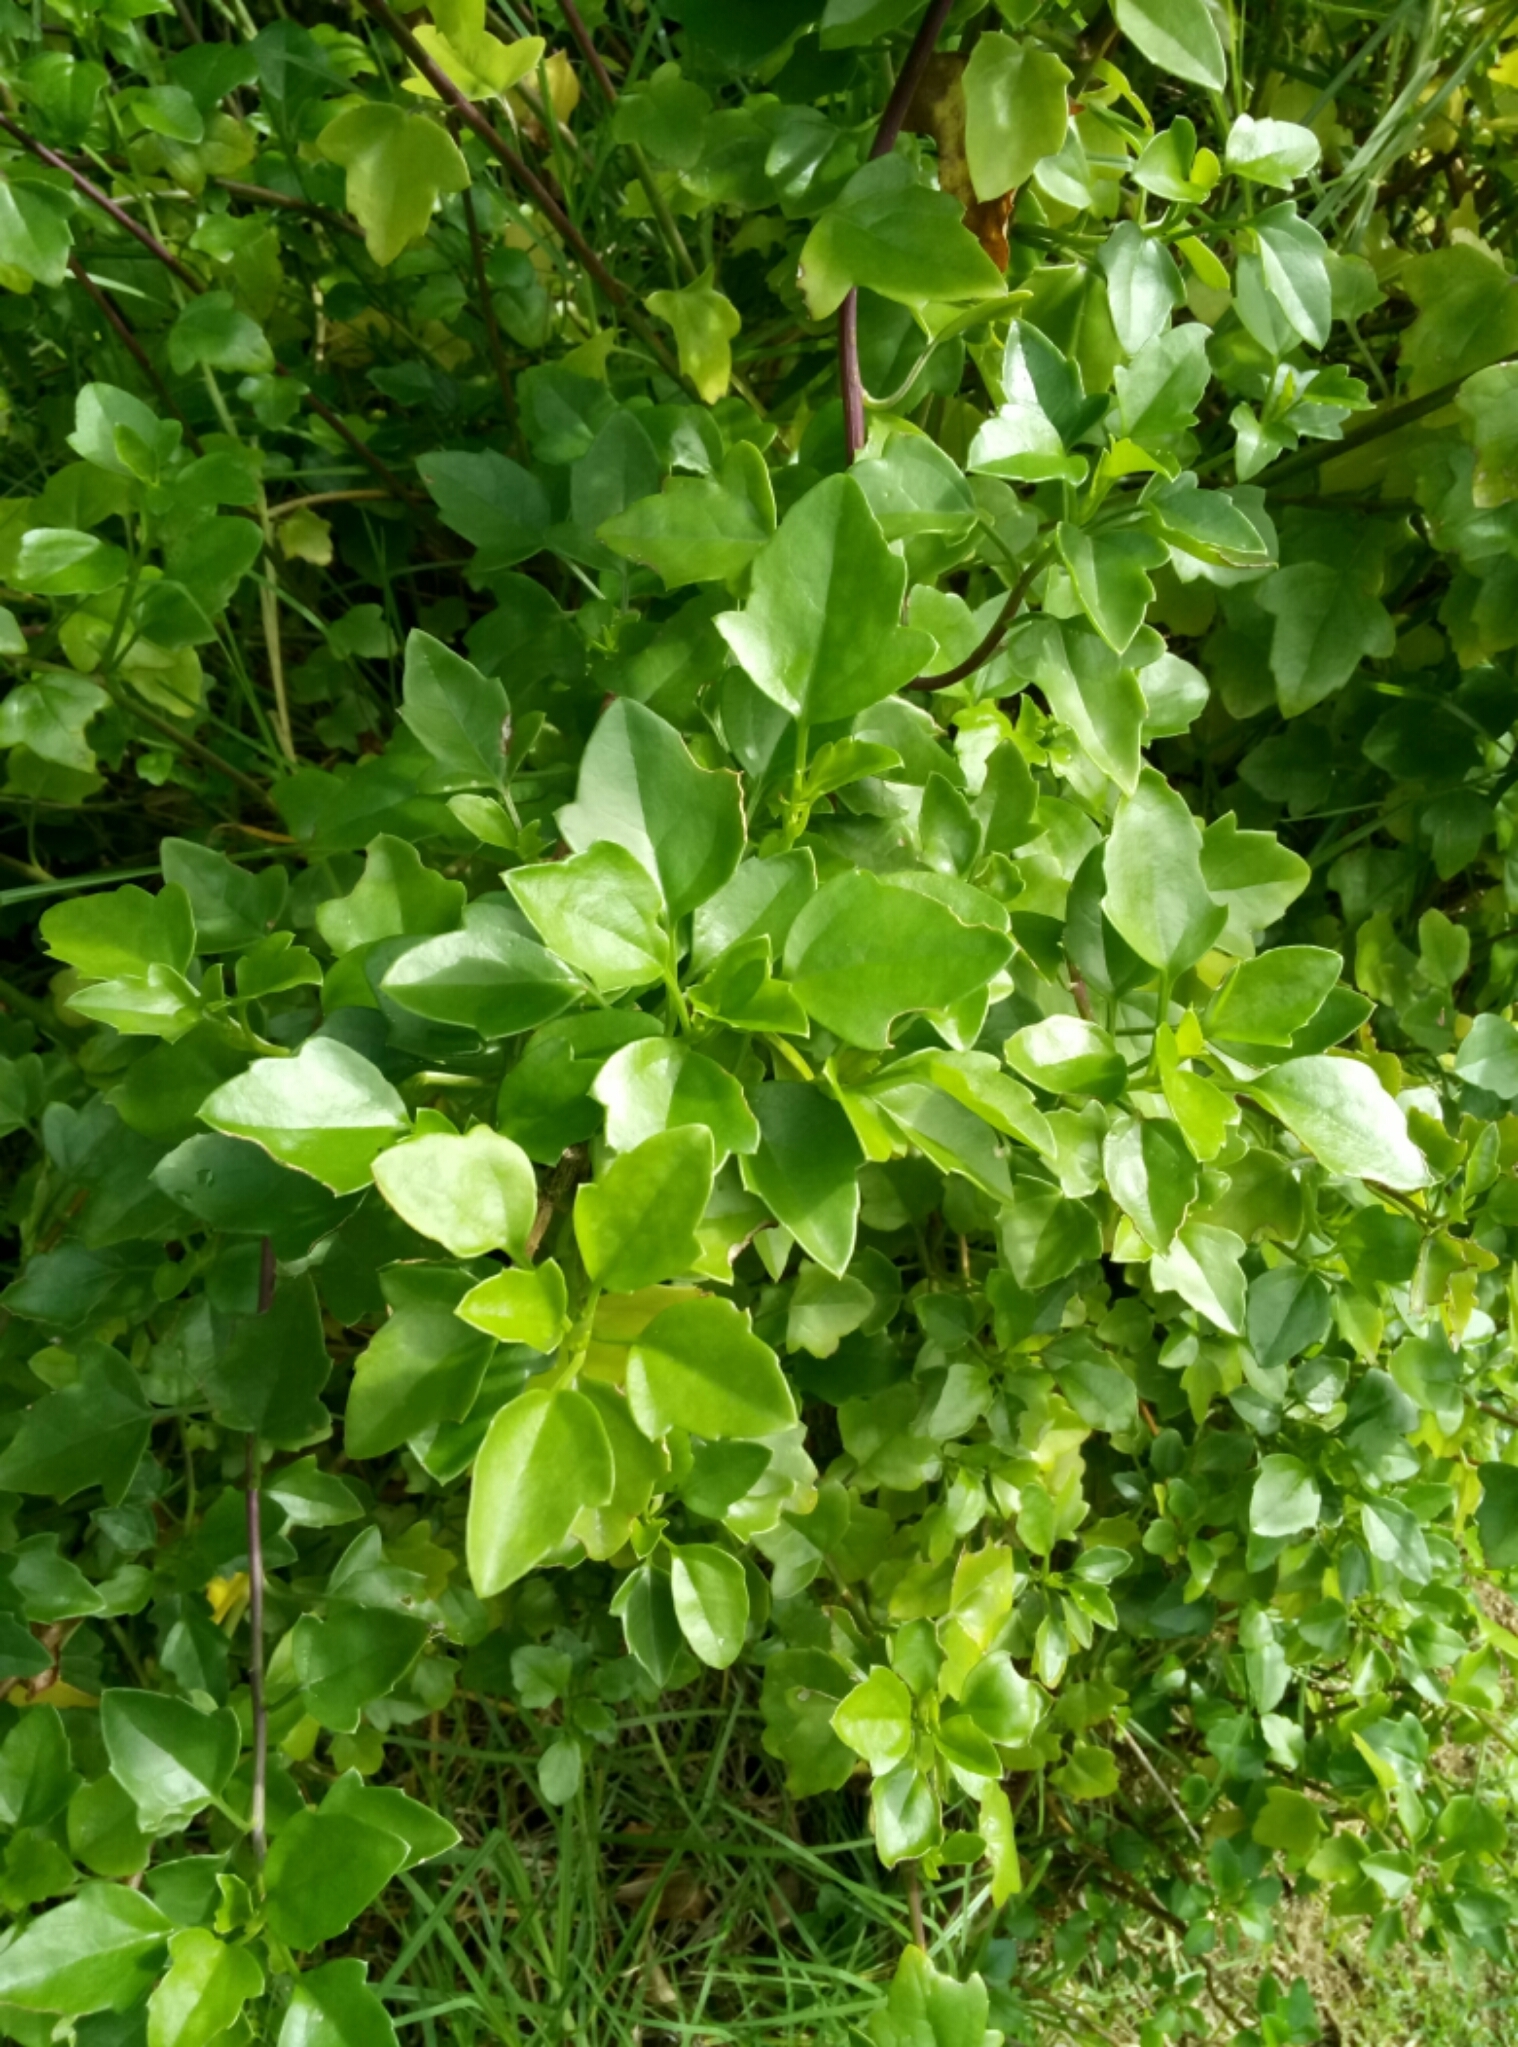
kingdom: Plantae
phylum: Tracheophyta
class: Magnoliopsida
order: Asterales
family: Asteraceae
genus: Senecio
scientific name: Senecio angulatus
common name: Climbing groundsel
